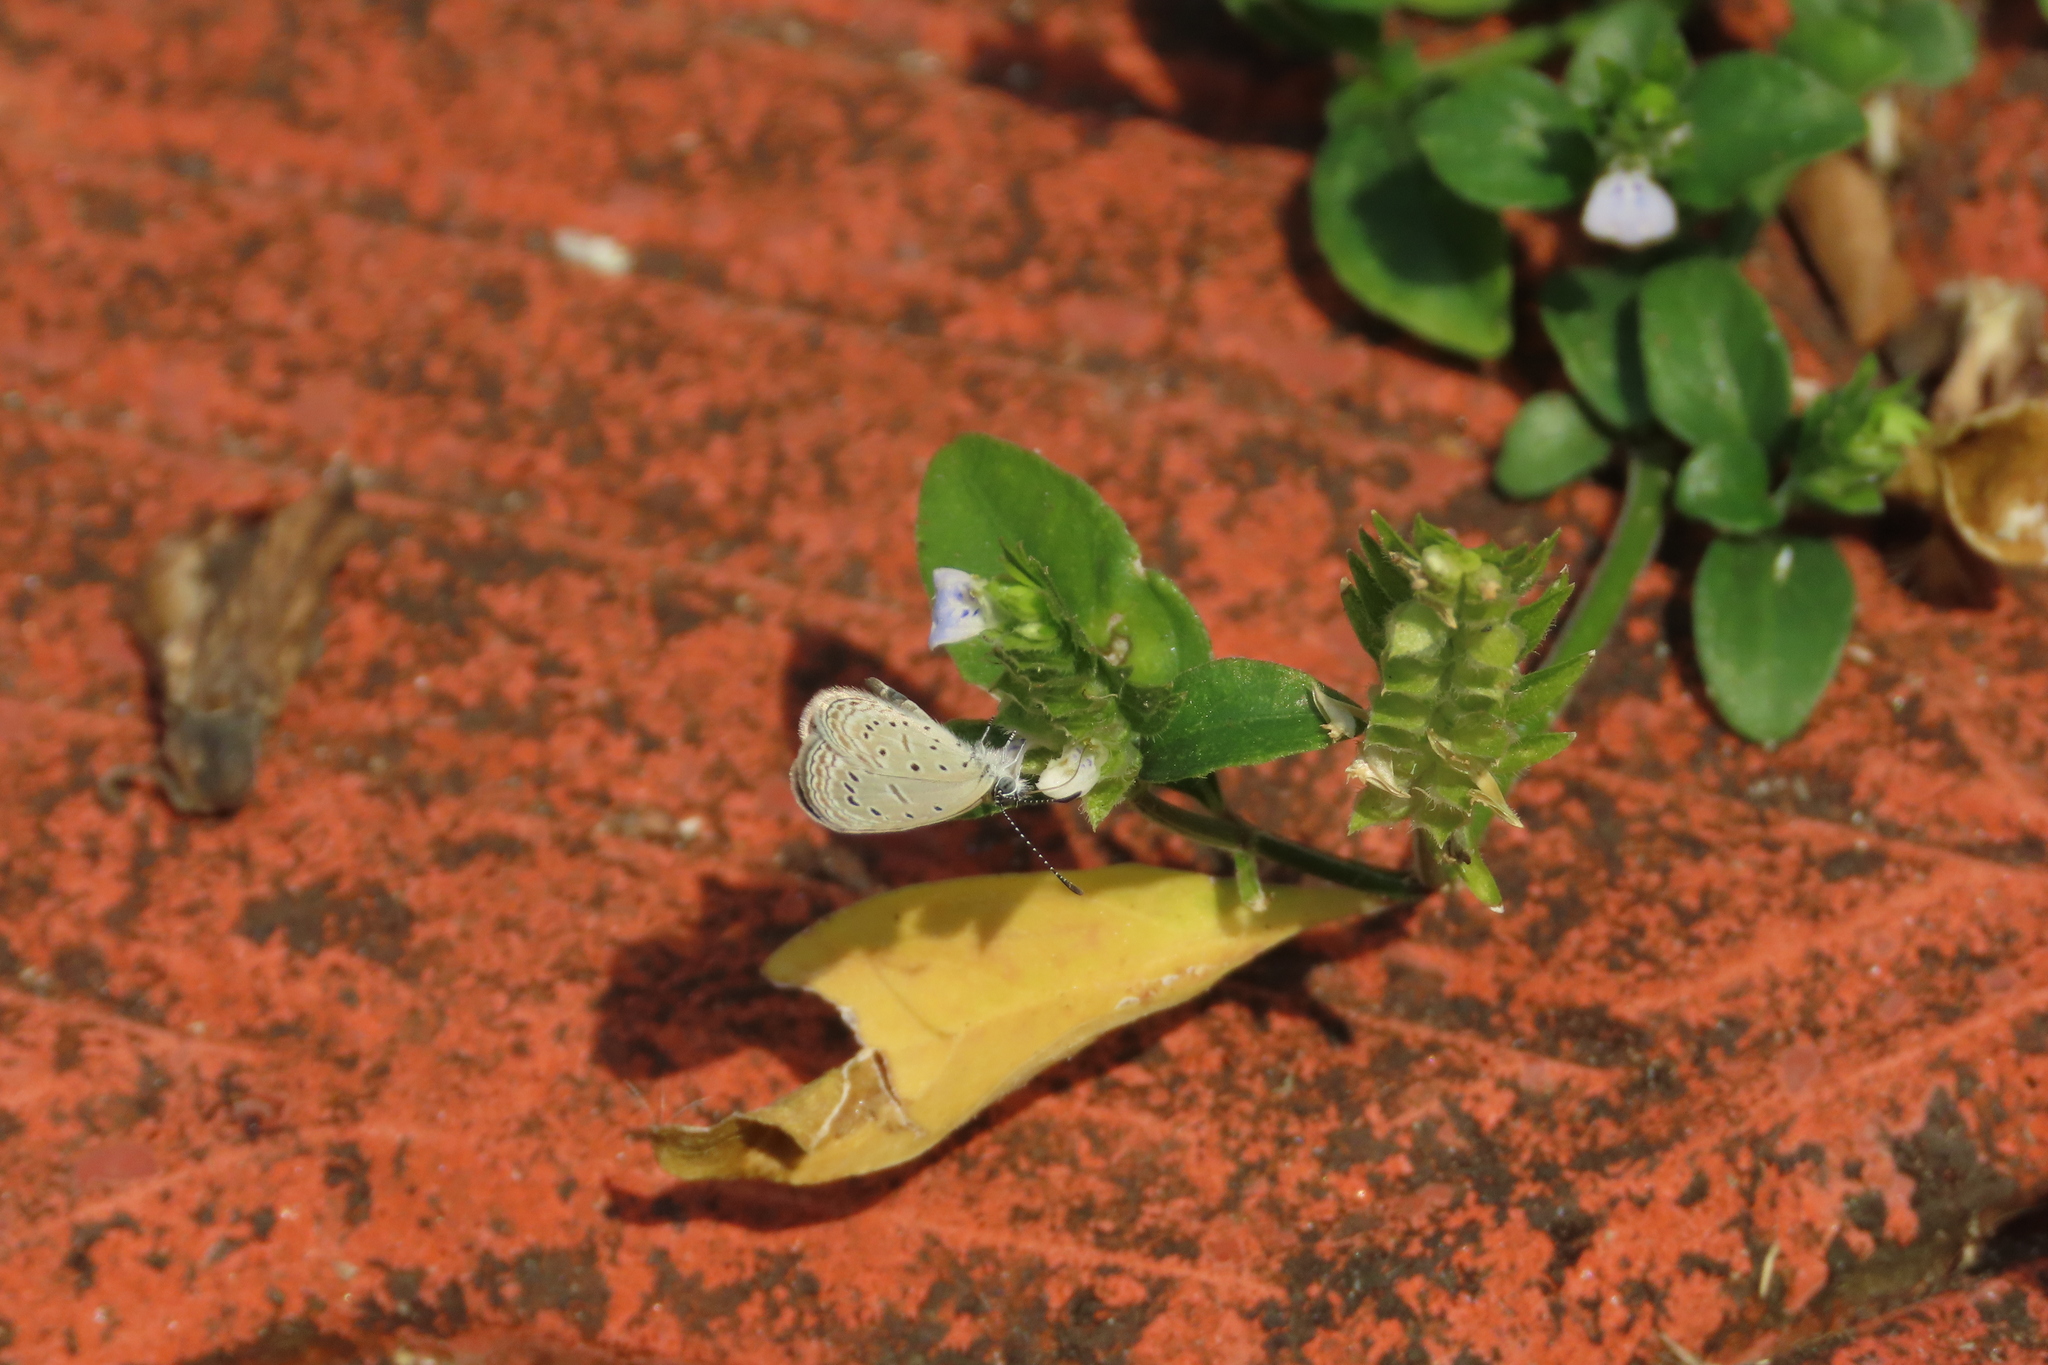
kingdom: Animalia
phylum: Arthropoda
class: Insecta
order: Lepidoptera
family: Lycaenidae
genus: Zizula
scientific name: Zizula hylax
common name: Gaika blue
